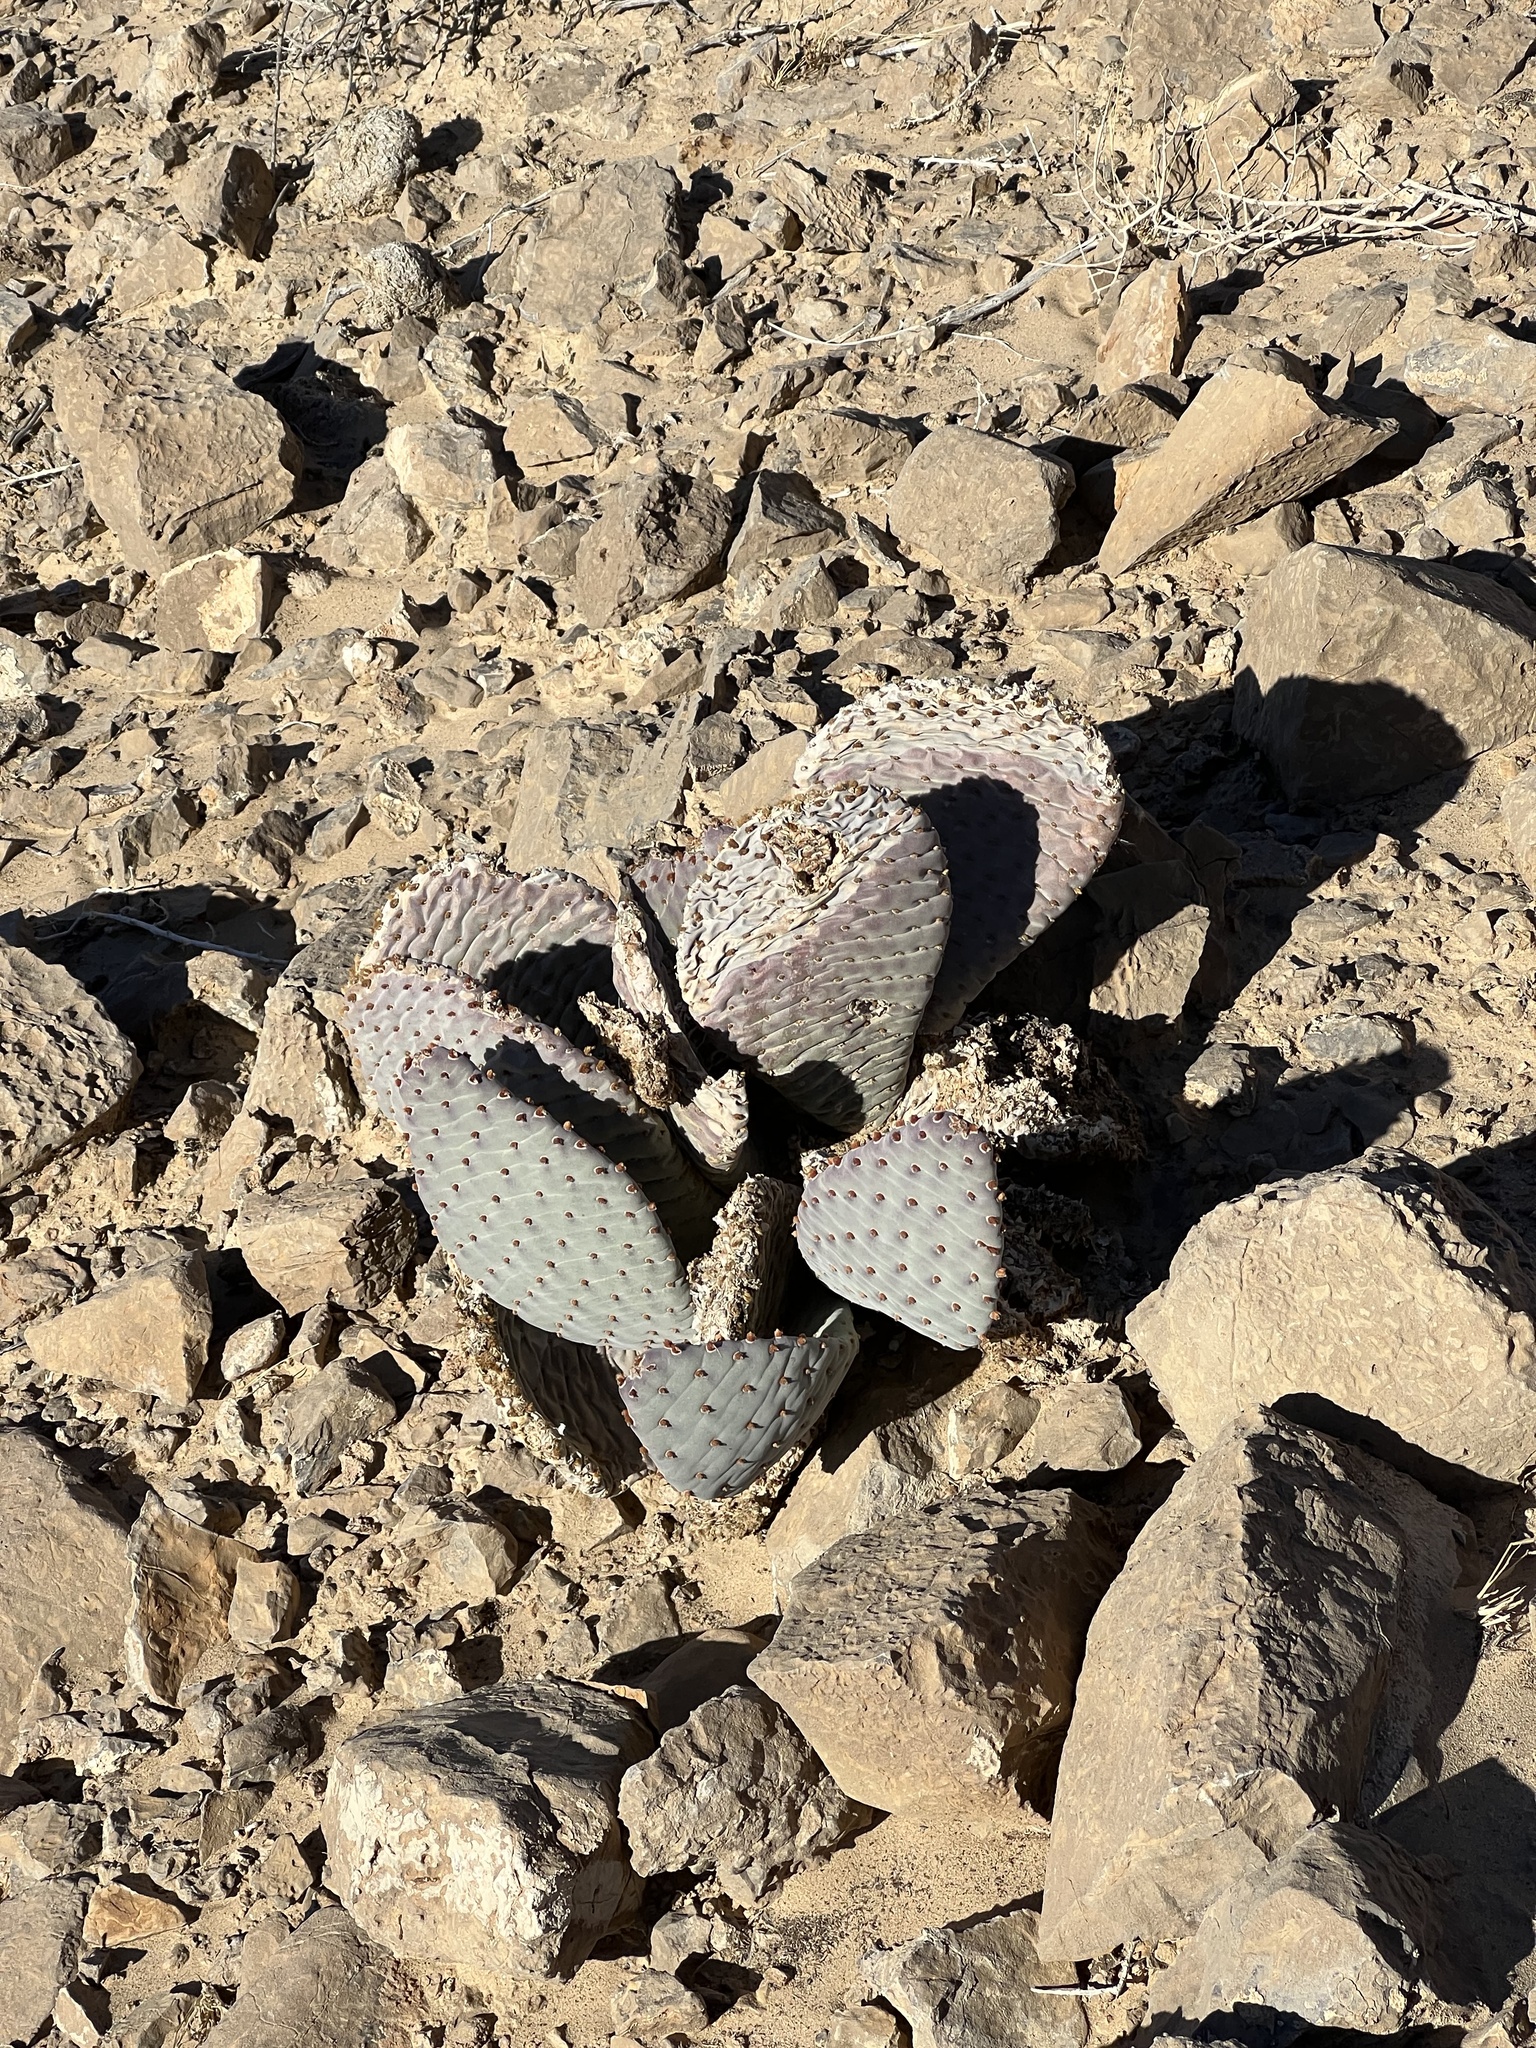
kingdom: Plantae
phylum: Tracheophyta
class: Magnoliopsida
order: Caryophyllales
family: Cactaceae
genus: Opuntia
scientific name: Opuntia basilaris
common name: Beavertail prickly-pear
